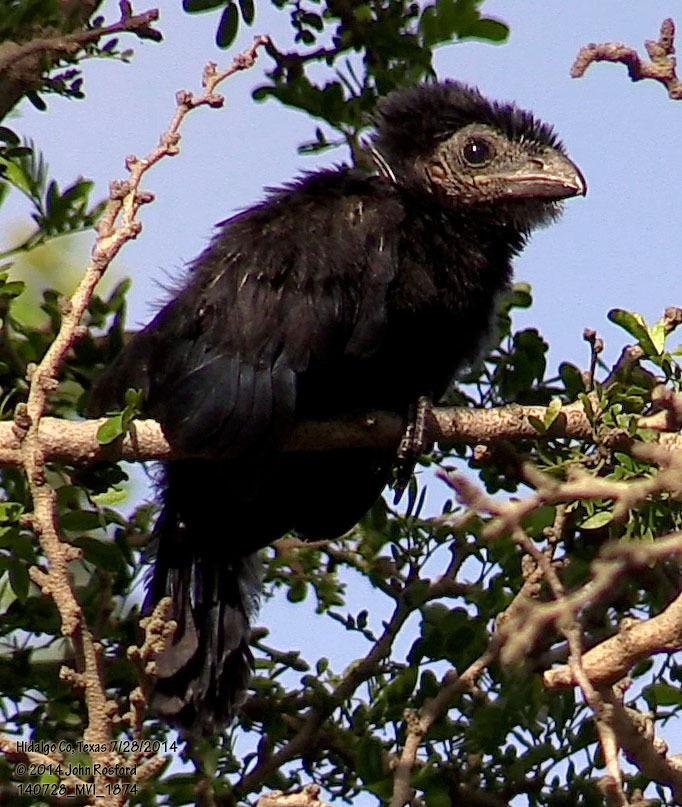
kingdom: Animalia
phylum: Chordata
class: Aves
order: Cuculiformes
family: Cuculidae
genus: Crotophaga
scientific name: Crotophaga sulcirostris
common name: Groove-billed ani
